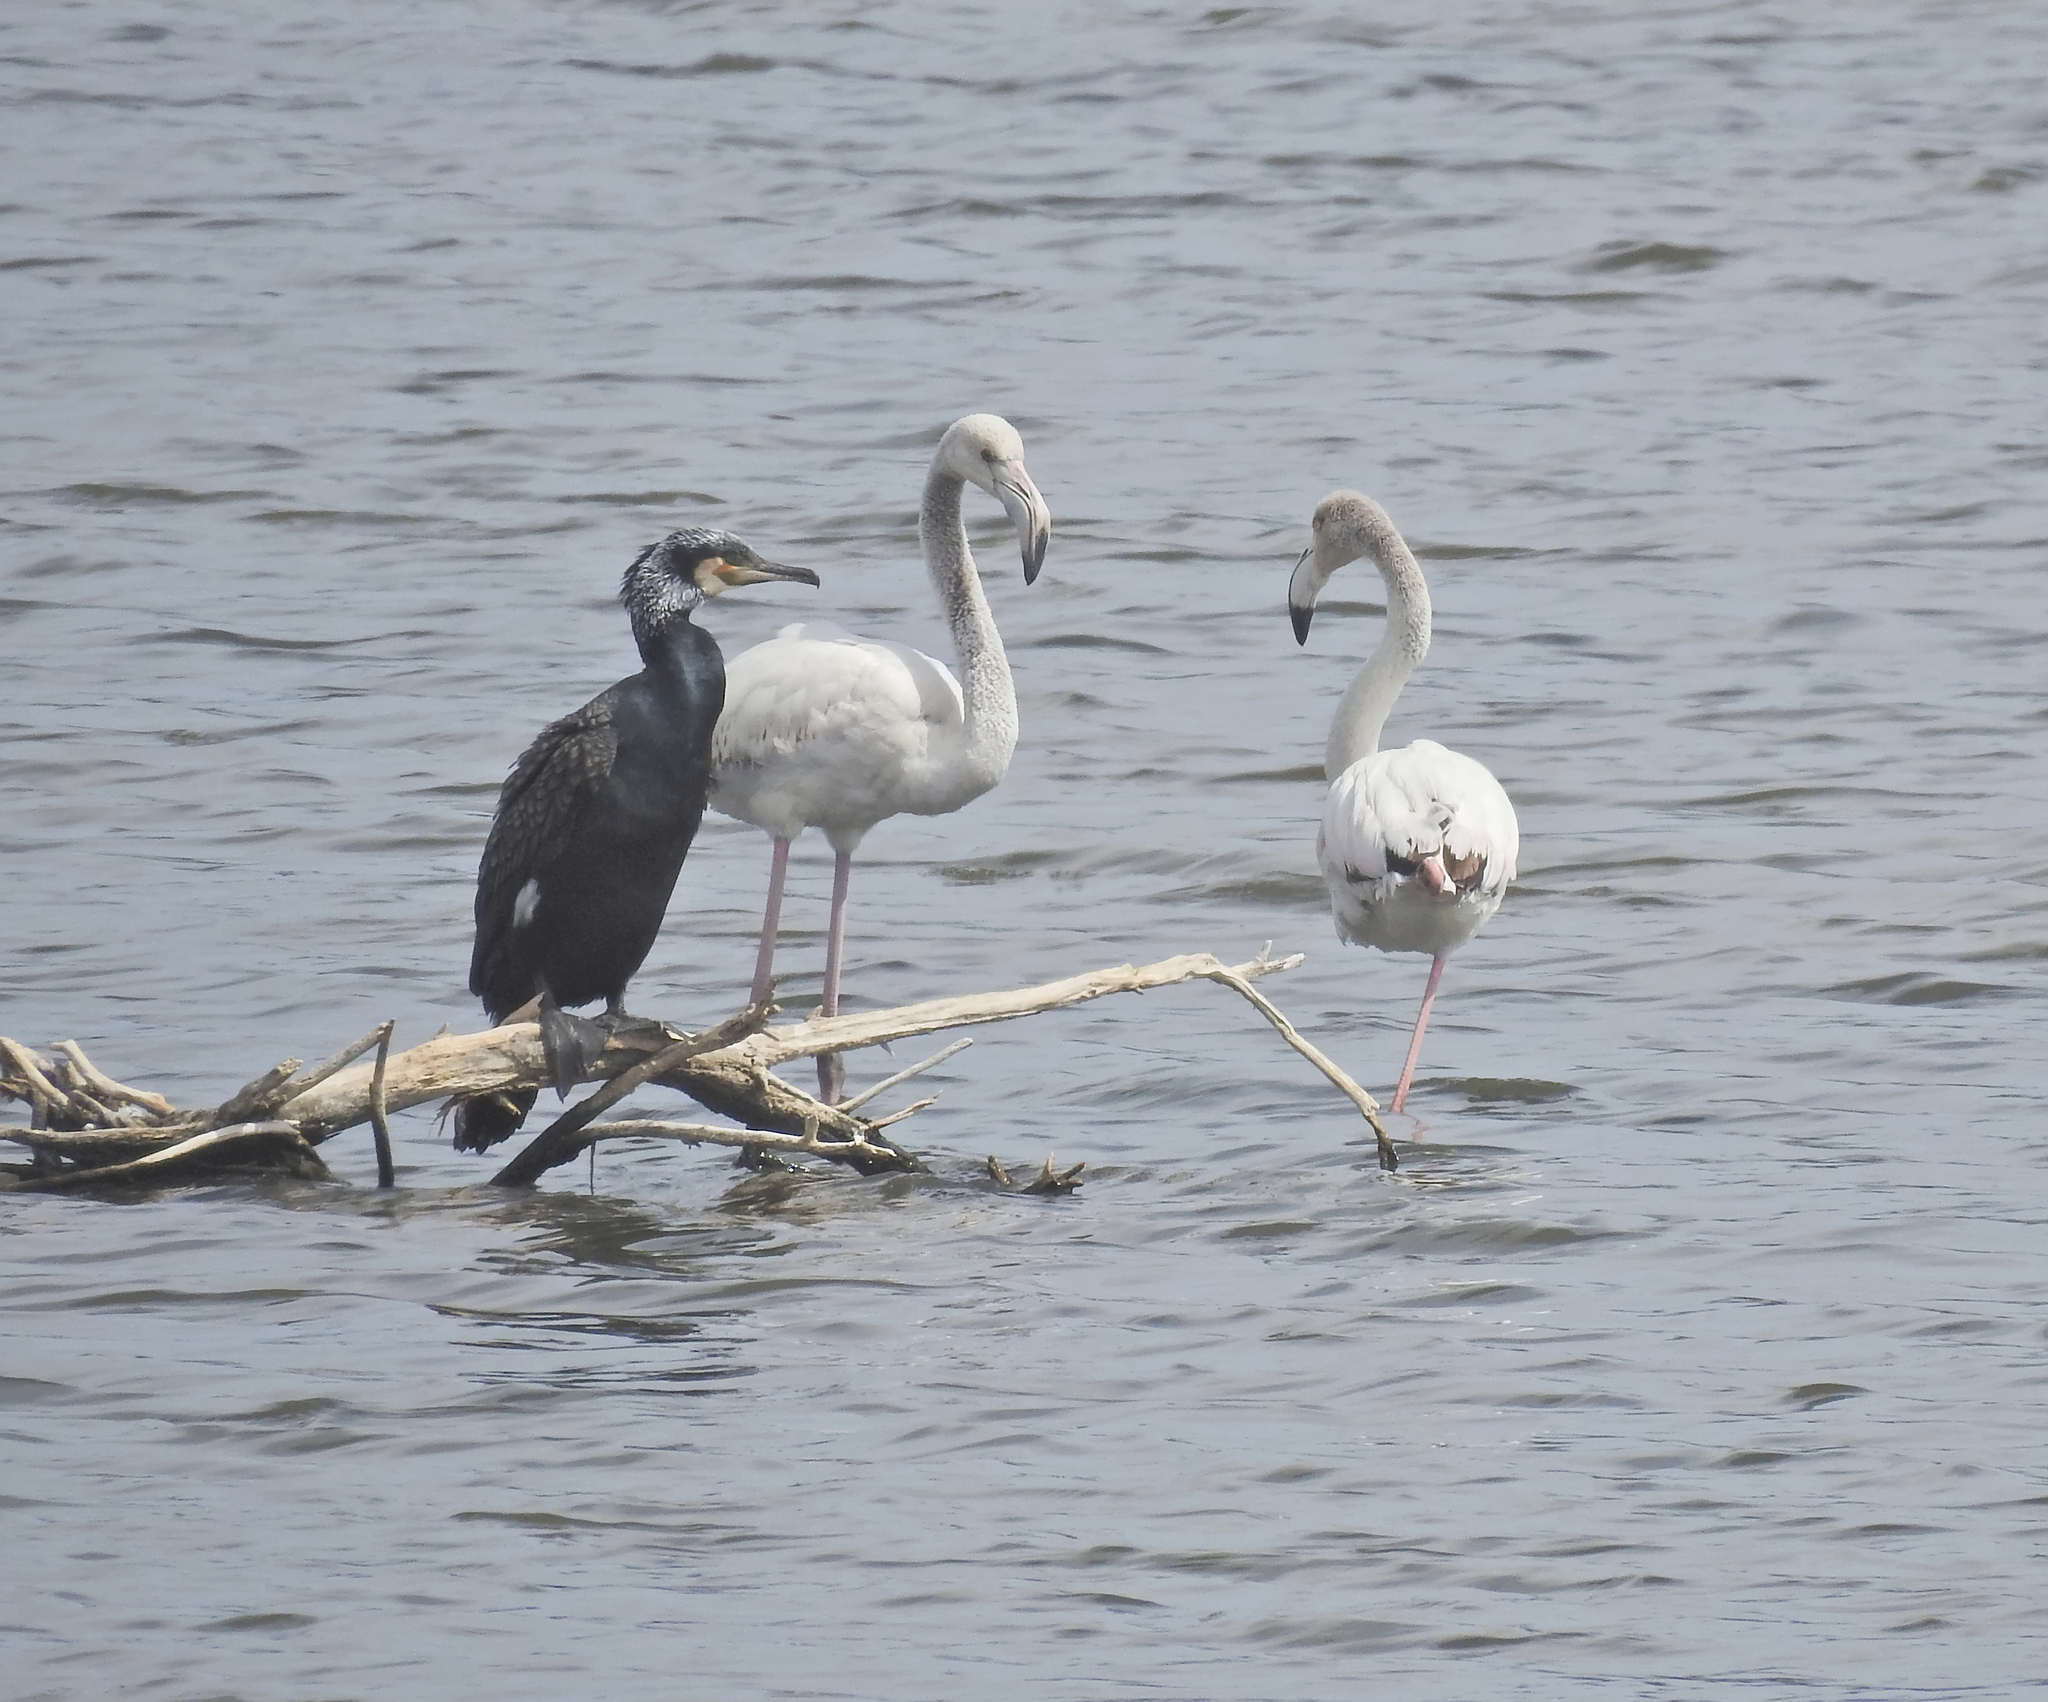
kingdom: Animalia
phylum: Chordata
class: Aves
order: Suliformes
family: Phalacrocoracidae
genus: Phalacrocorax
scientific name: Phalacrocorax carbo
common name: Great cormorant
